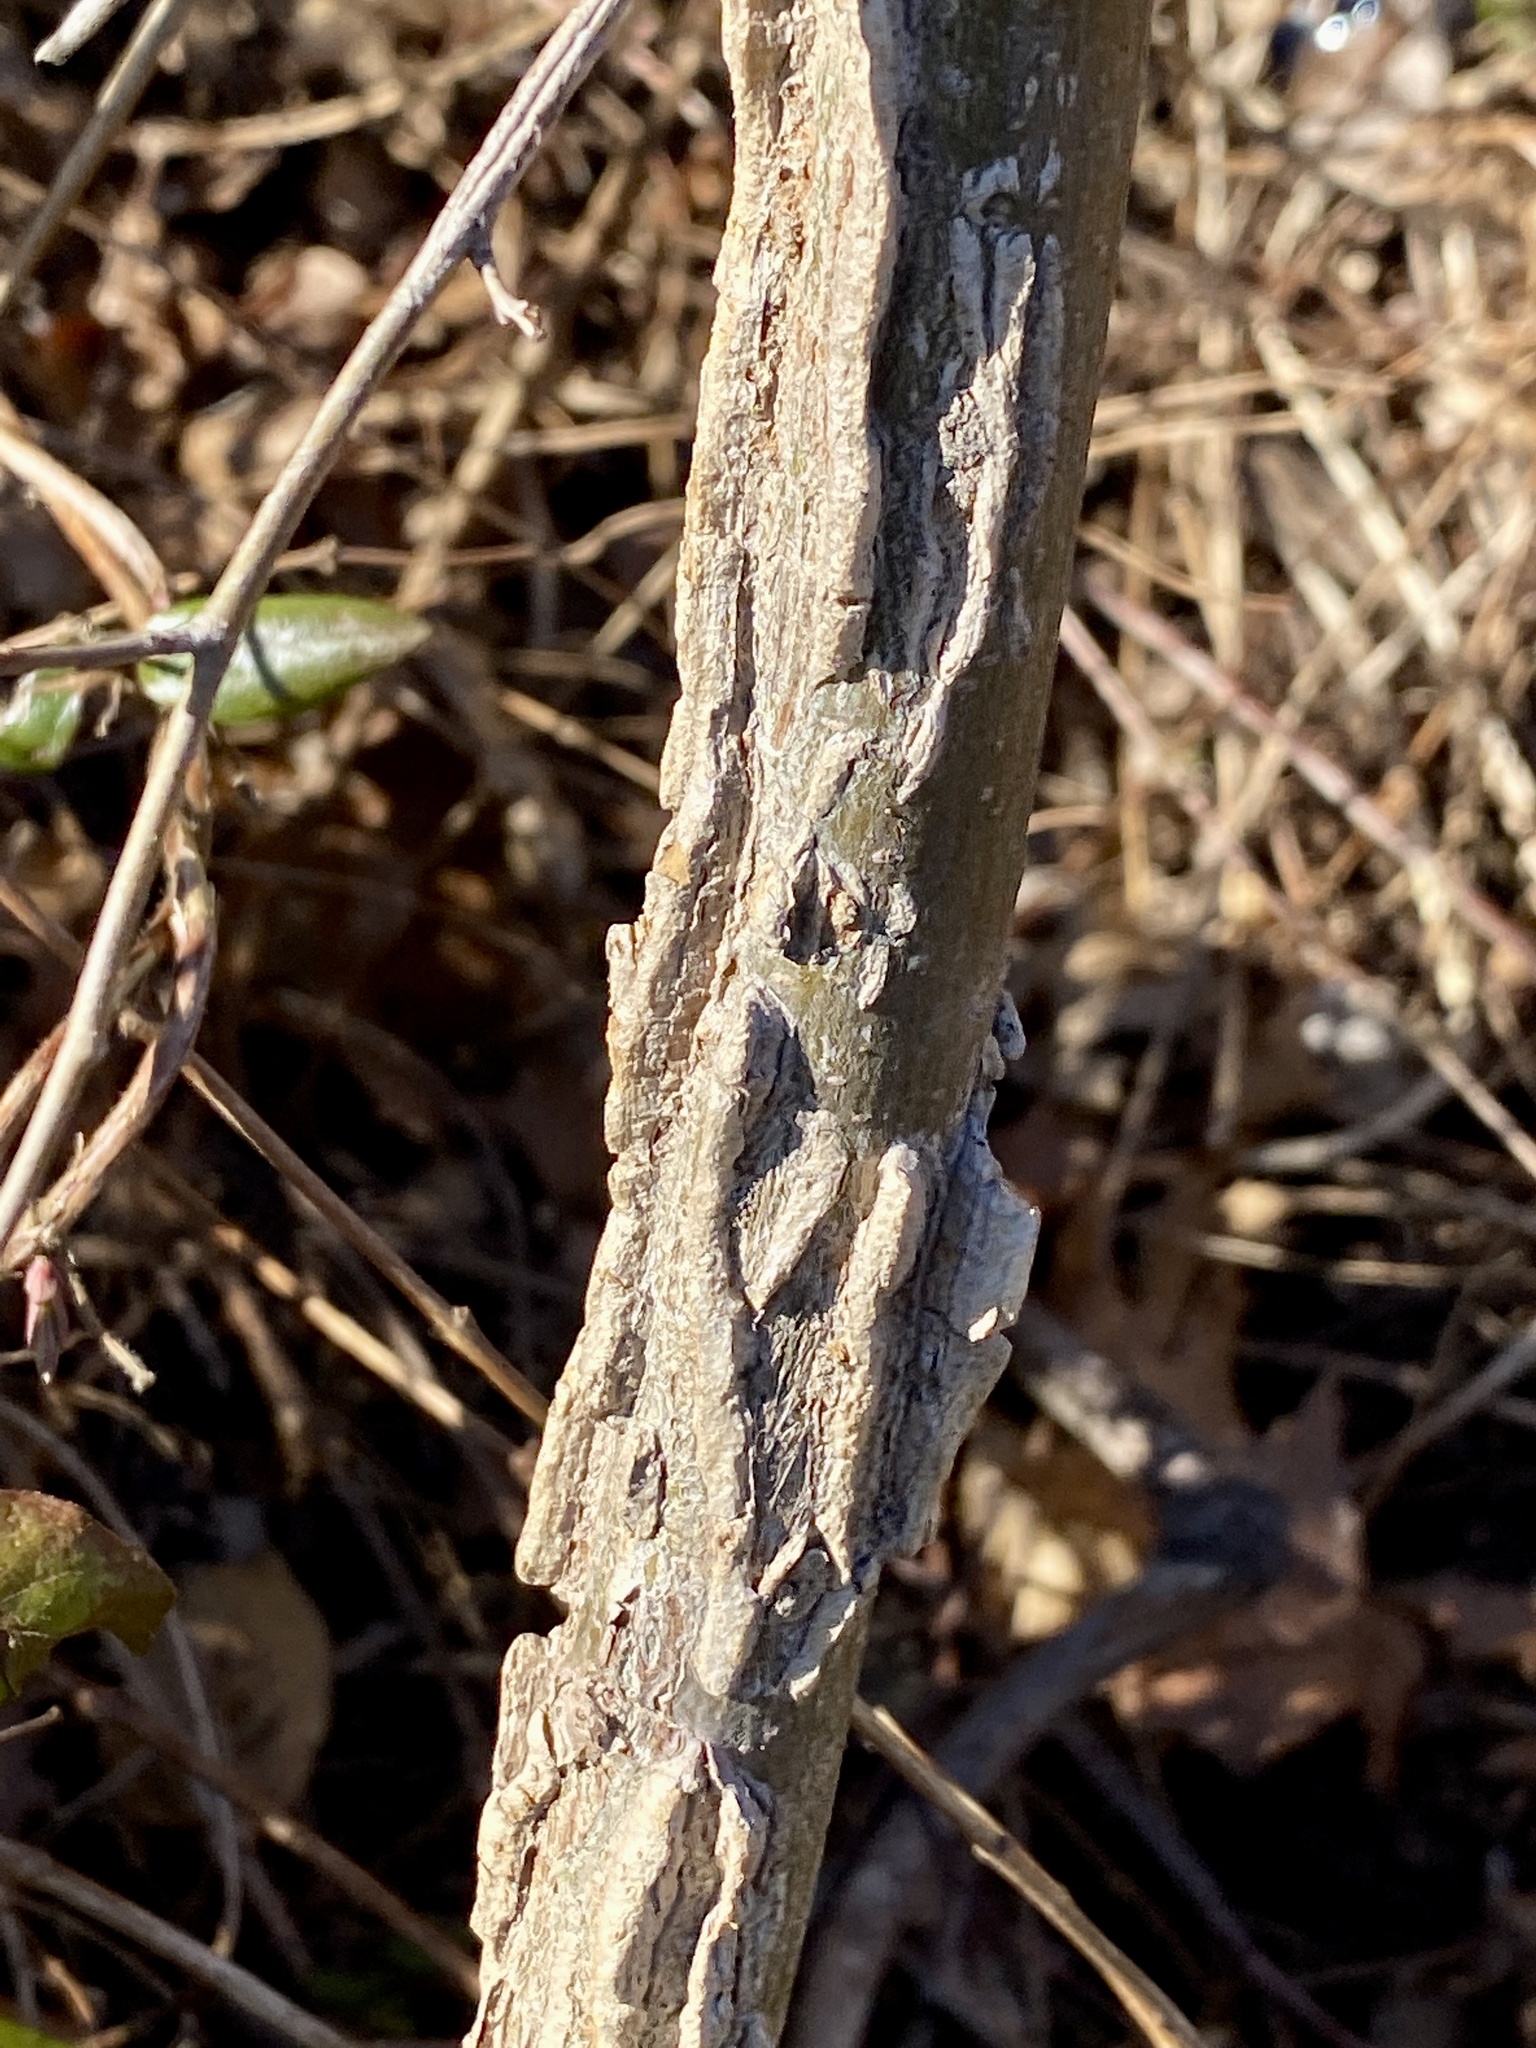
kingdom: Plantae
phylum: Tracheophyta
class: Magnoliopsida
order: Saxifragales
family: Altingiaceae
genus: Liquidambar
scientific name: Liquidambar styraciflua
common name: Sweet gum
